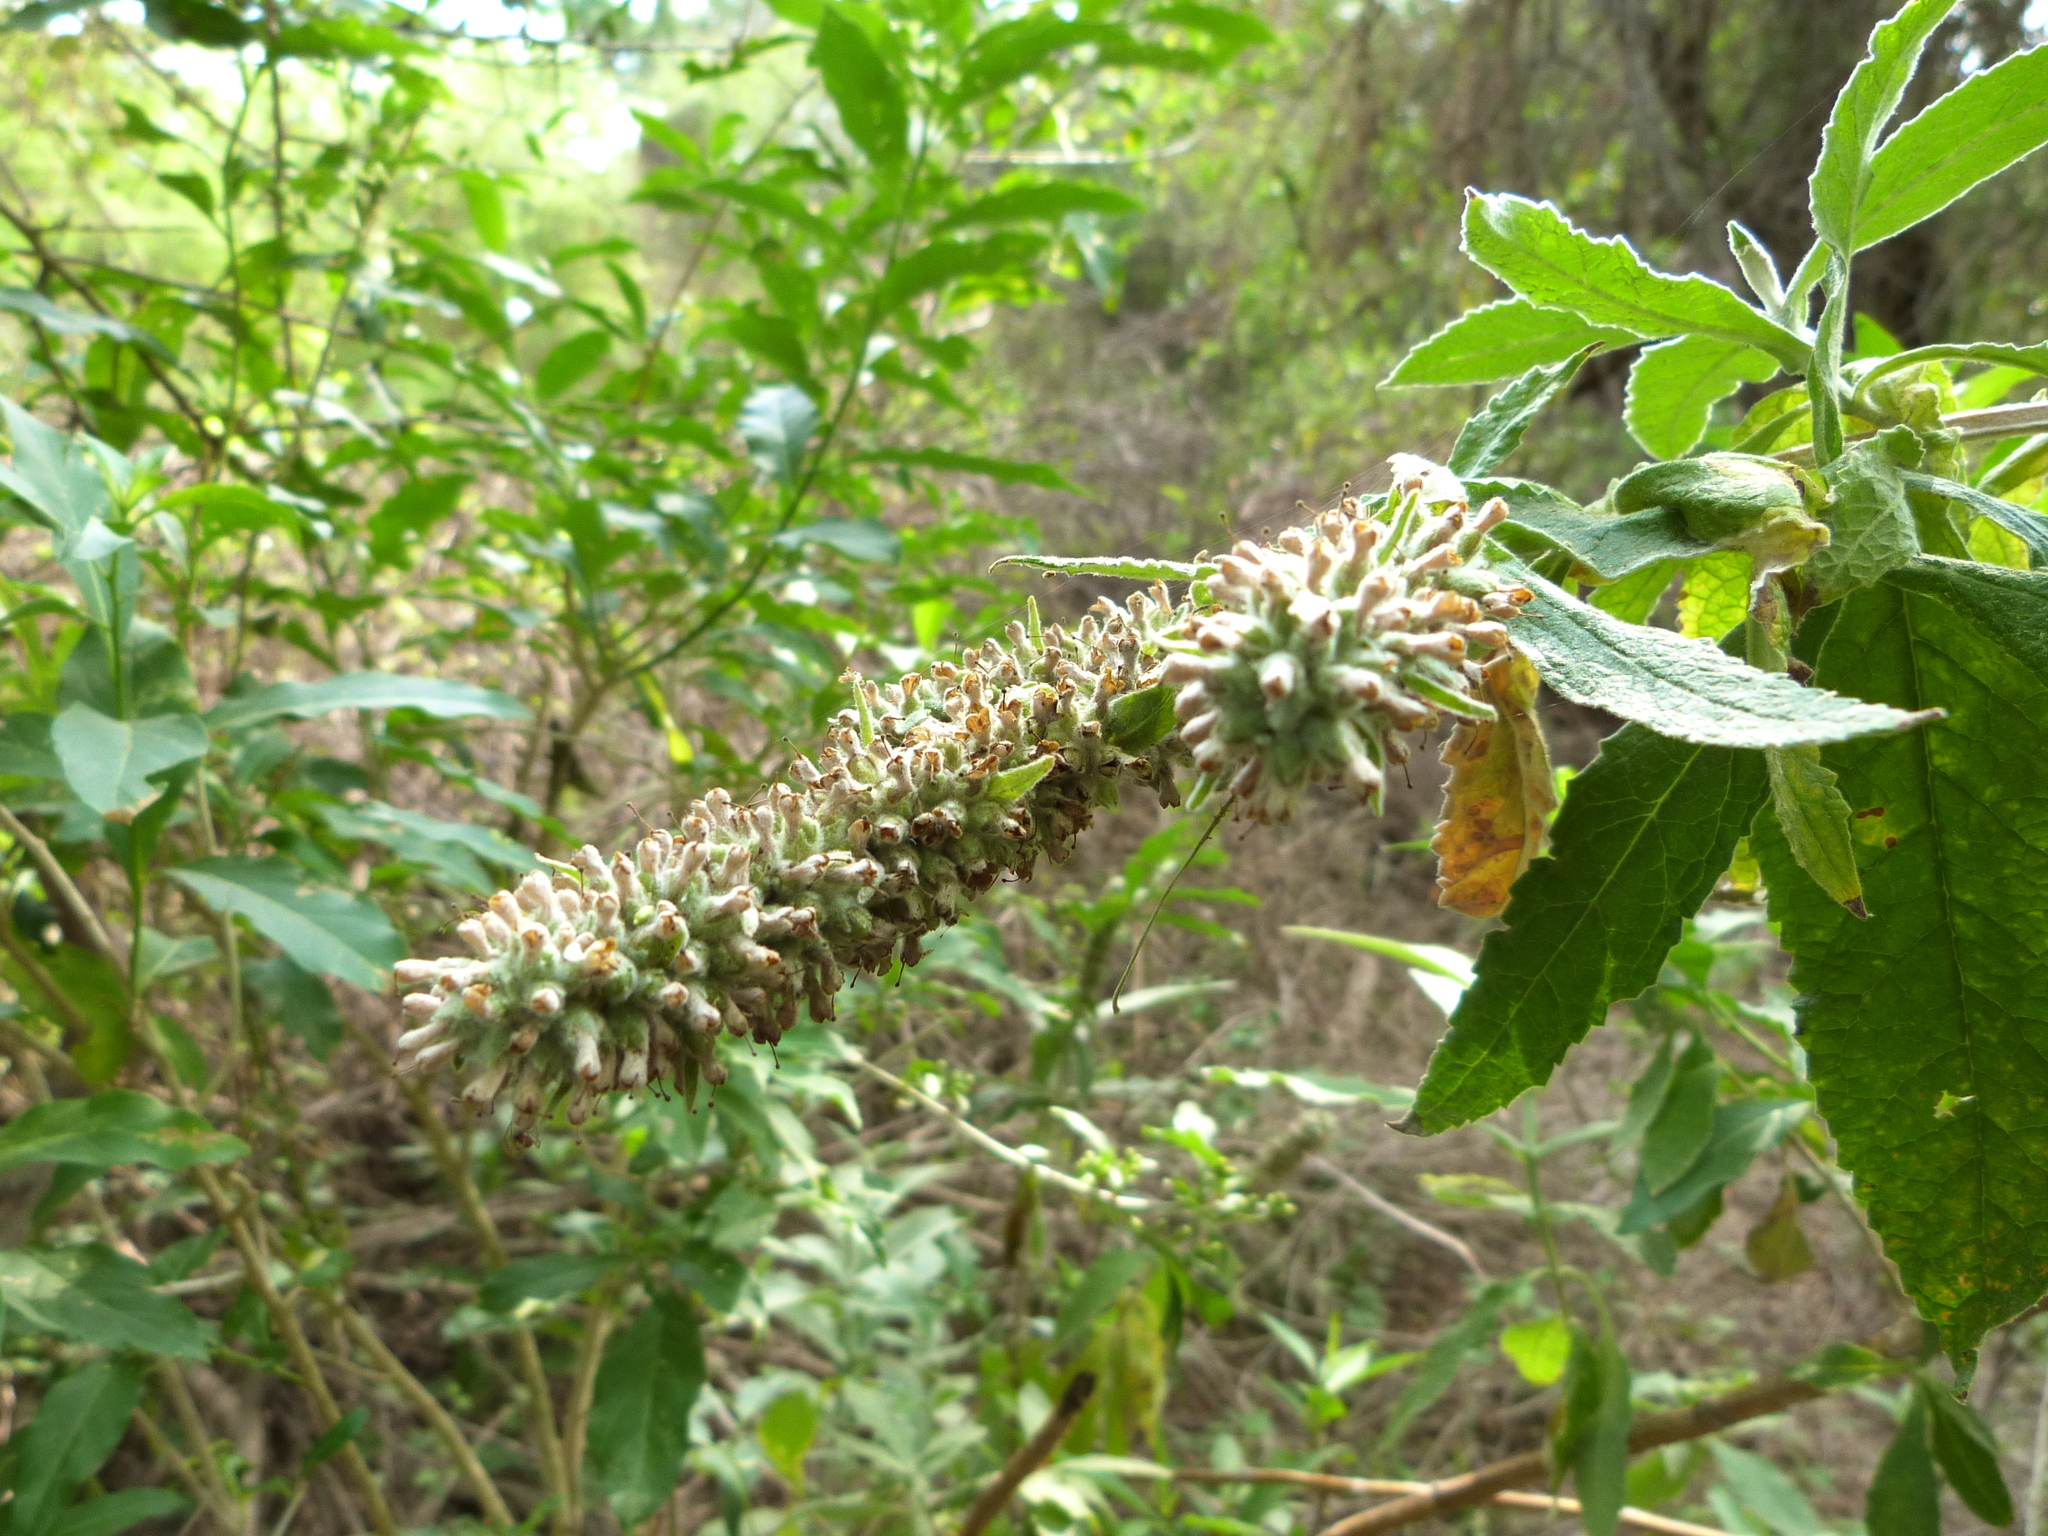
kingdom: Plantae
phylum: Tracheophyta
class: Magnoliopsida
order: Lamiales
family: Scrophulariaceae
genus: Buddleja
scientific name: Buddleja stachyoides
